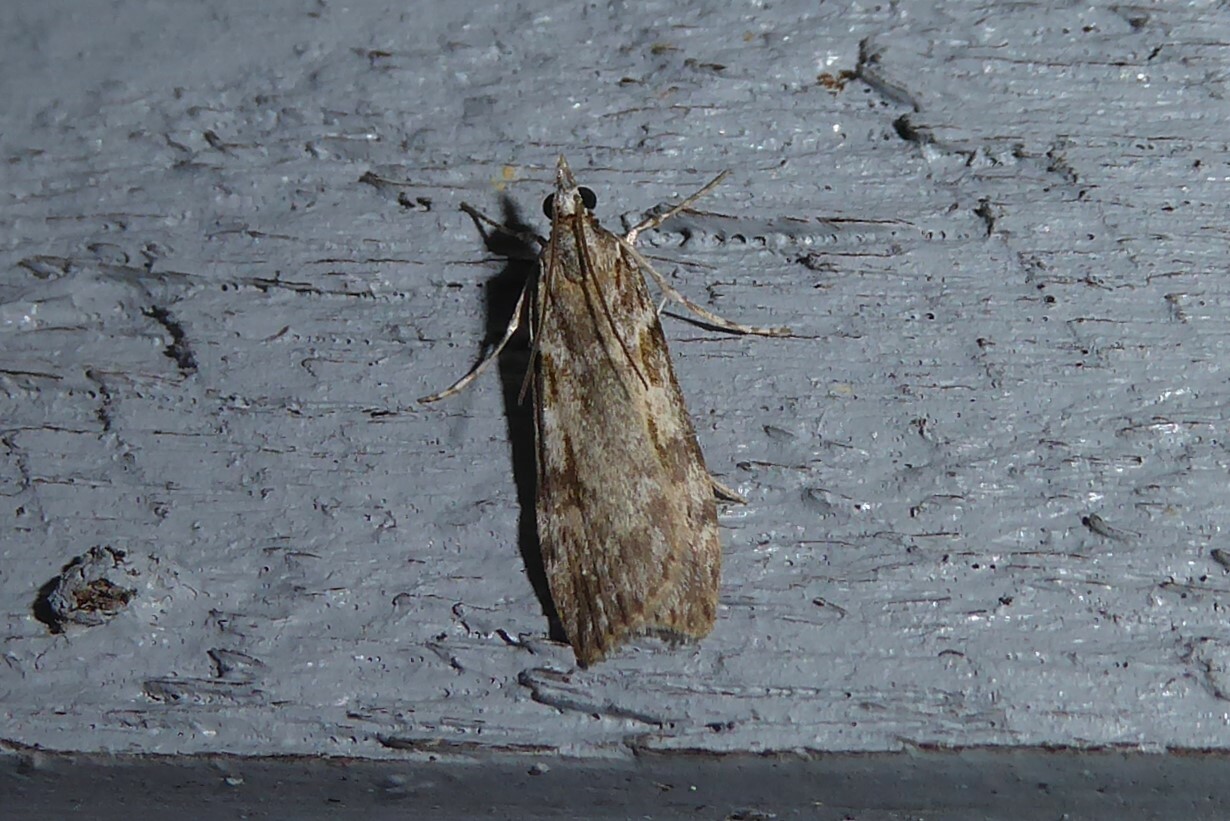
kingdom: Animalia
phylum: Arthropoda
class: Insecta
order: Lepidoptera
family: Crambidae
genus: Scoparia
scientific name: Scoparia halopis
